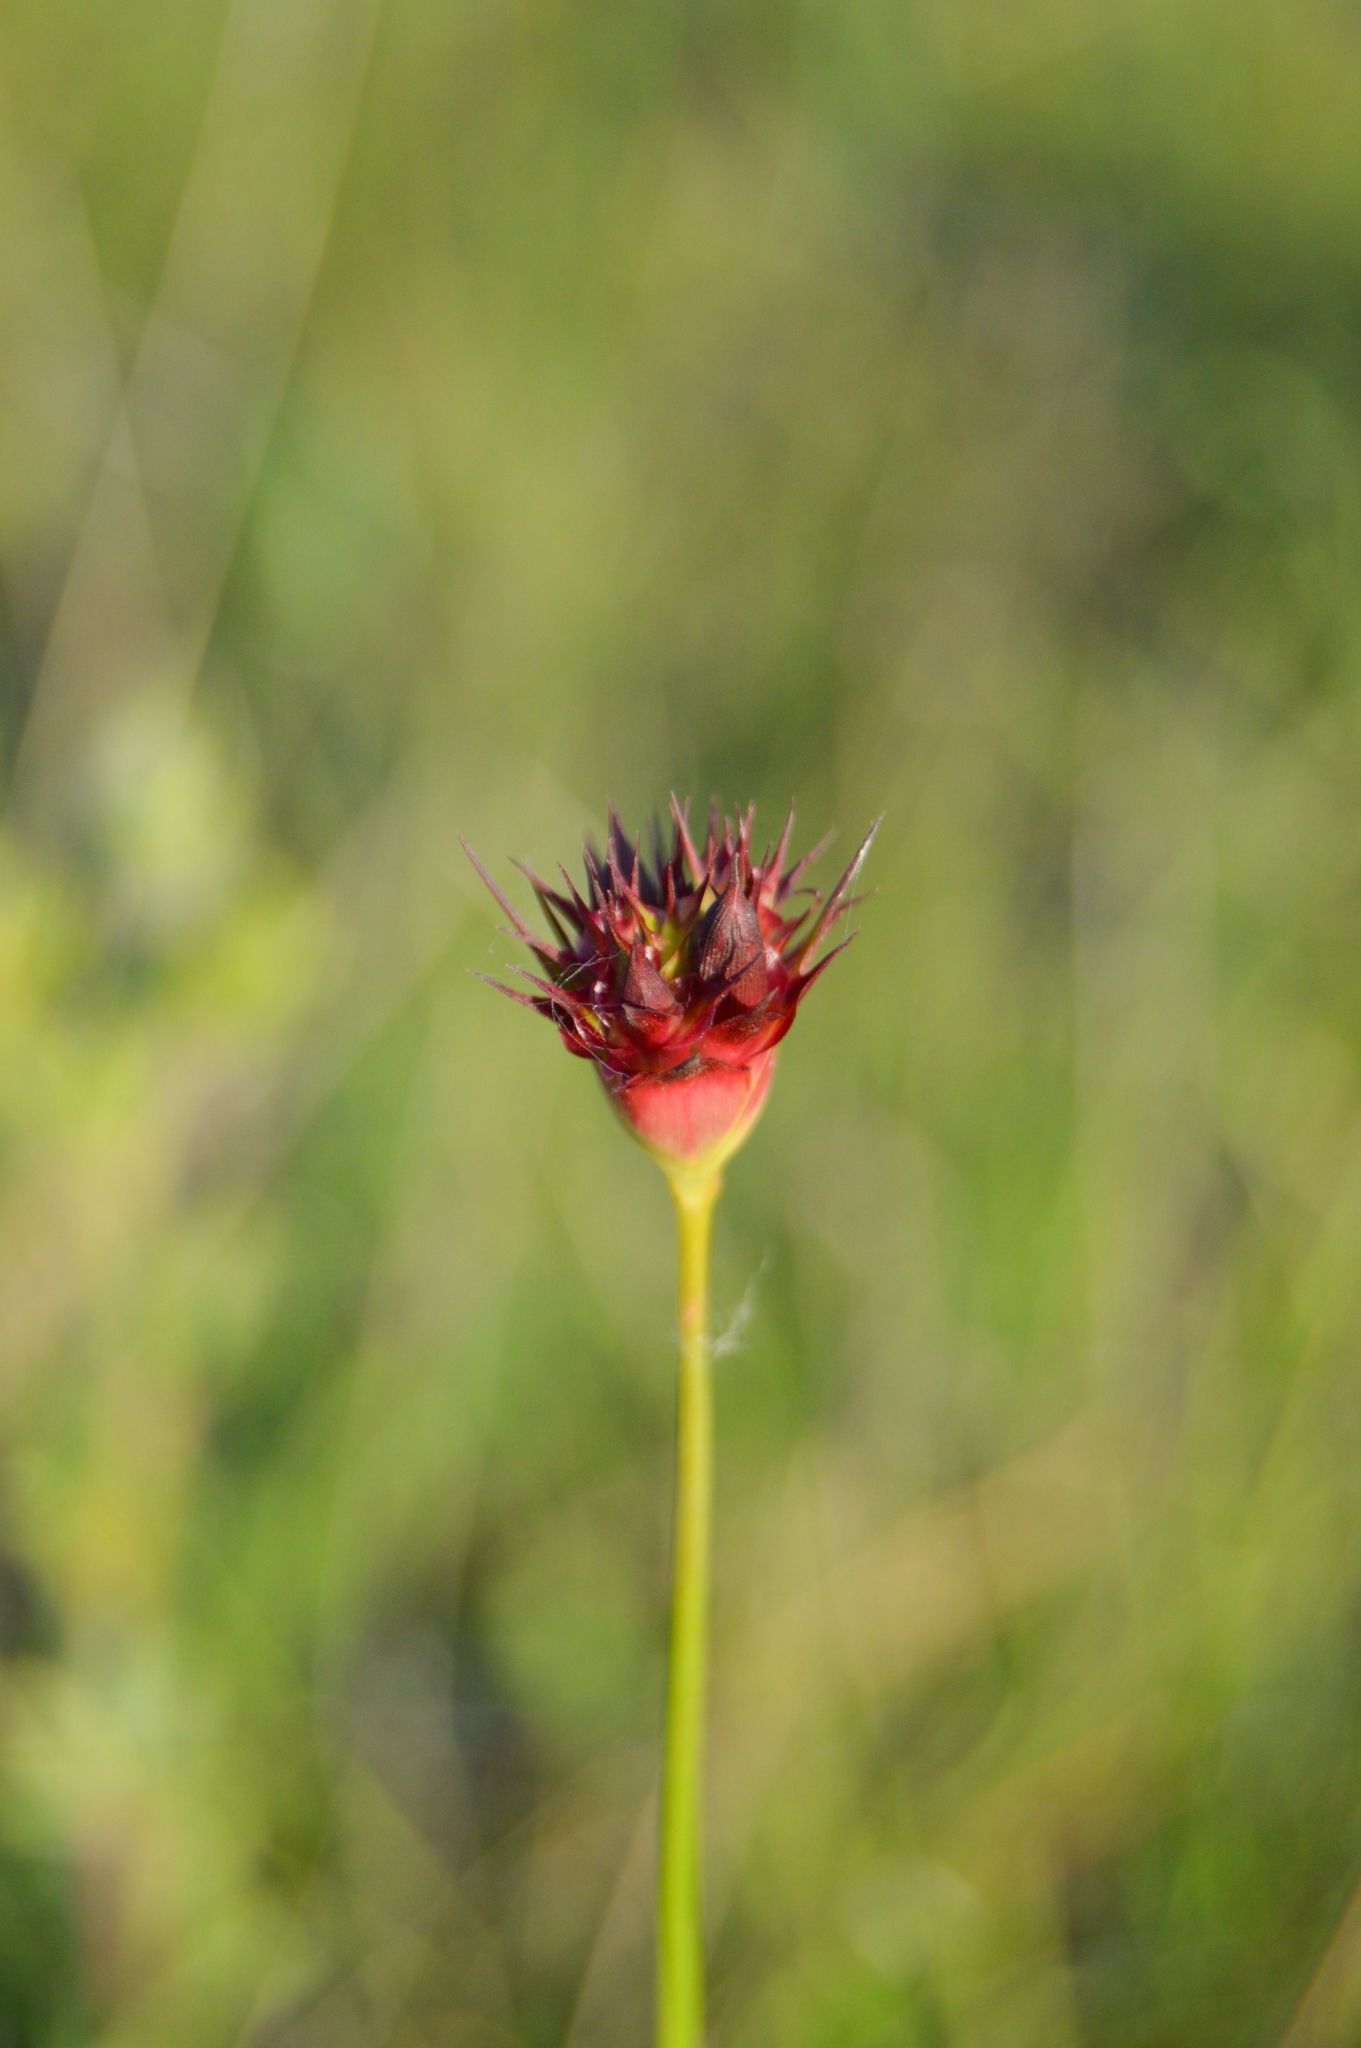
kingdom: Plantae
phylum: Tracheophyta
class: Magnoliopsida
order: Caryophyllales
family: Caryophyllaceae
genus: Dianthus
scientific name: Dianthus capitatus
